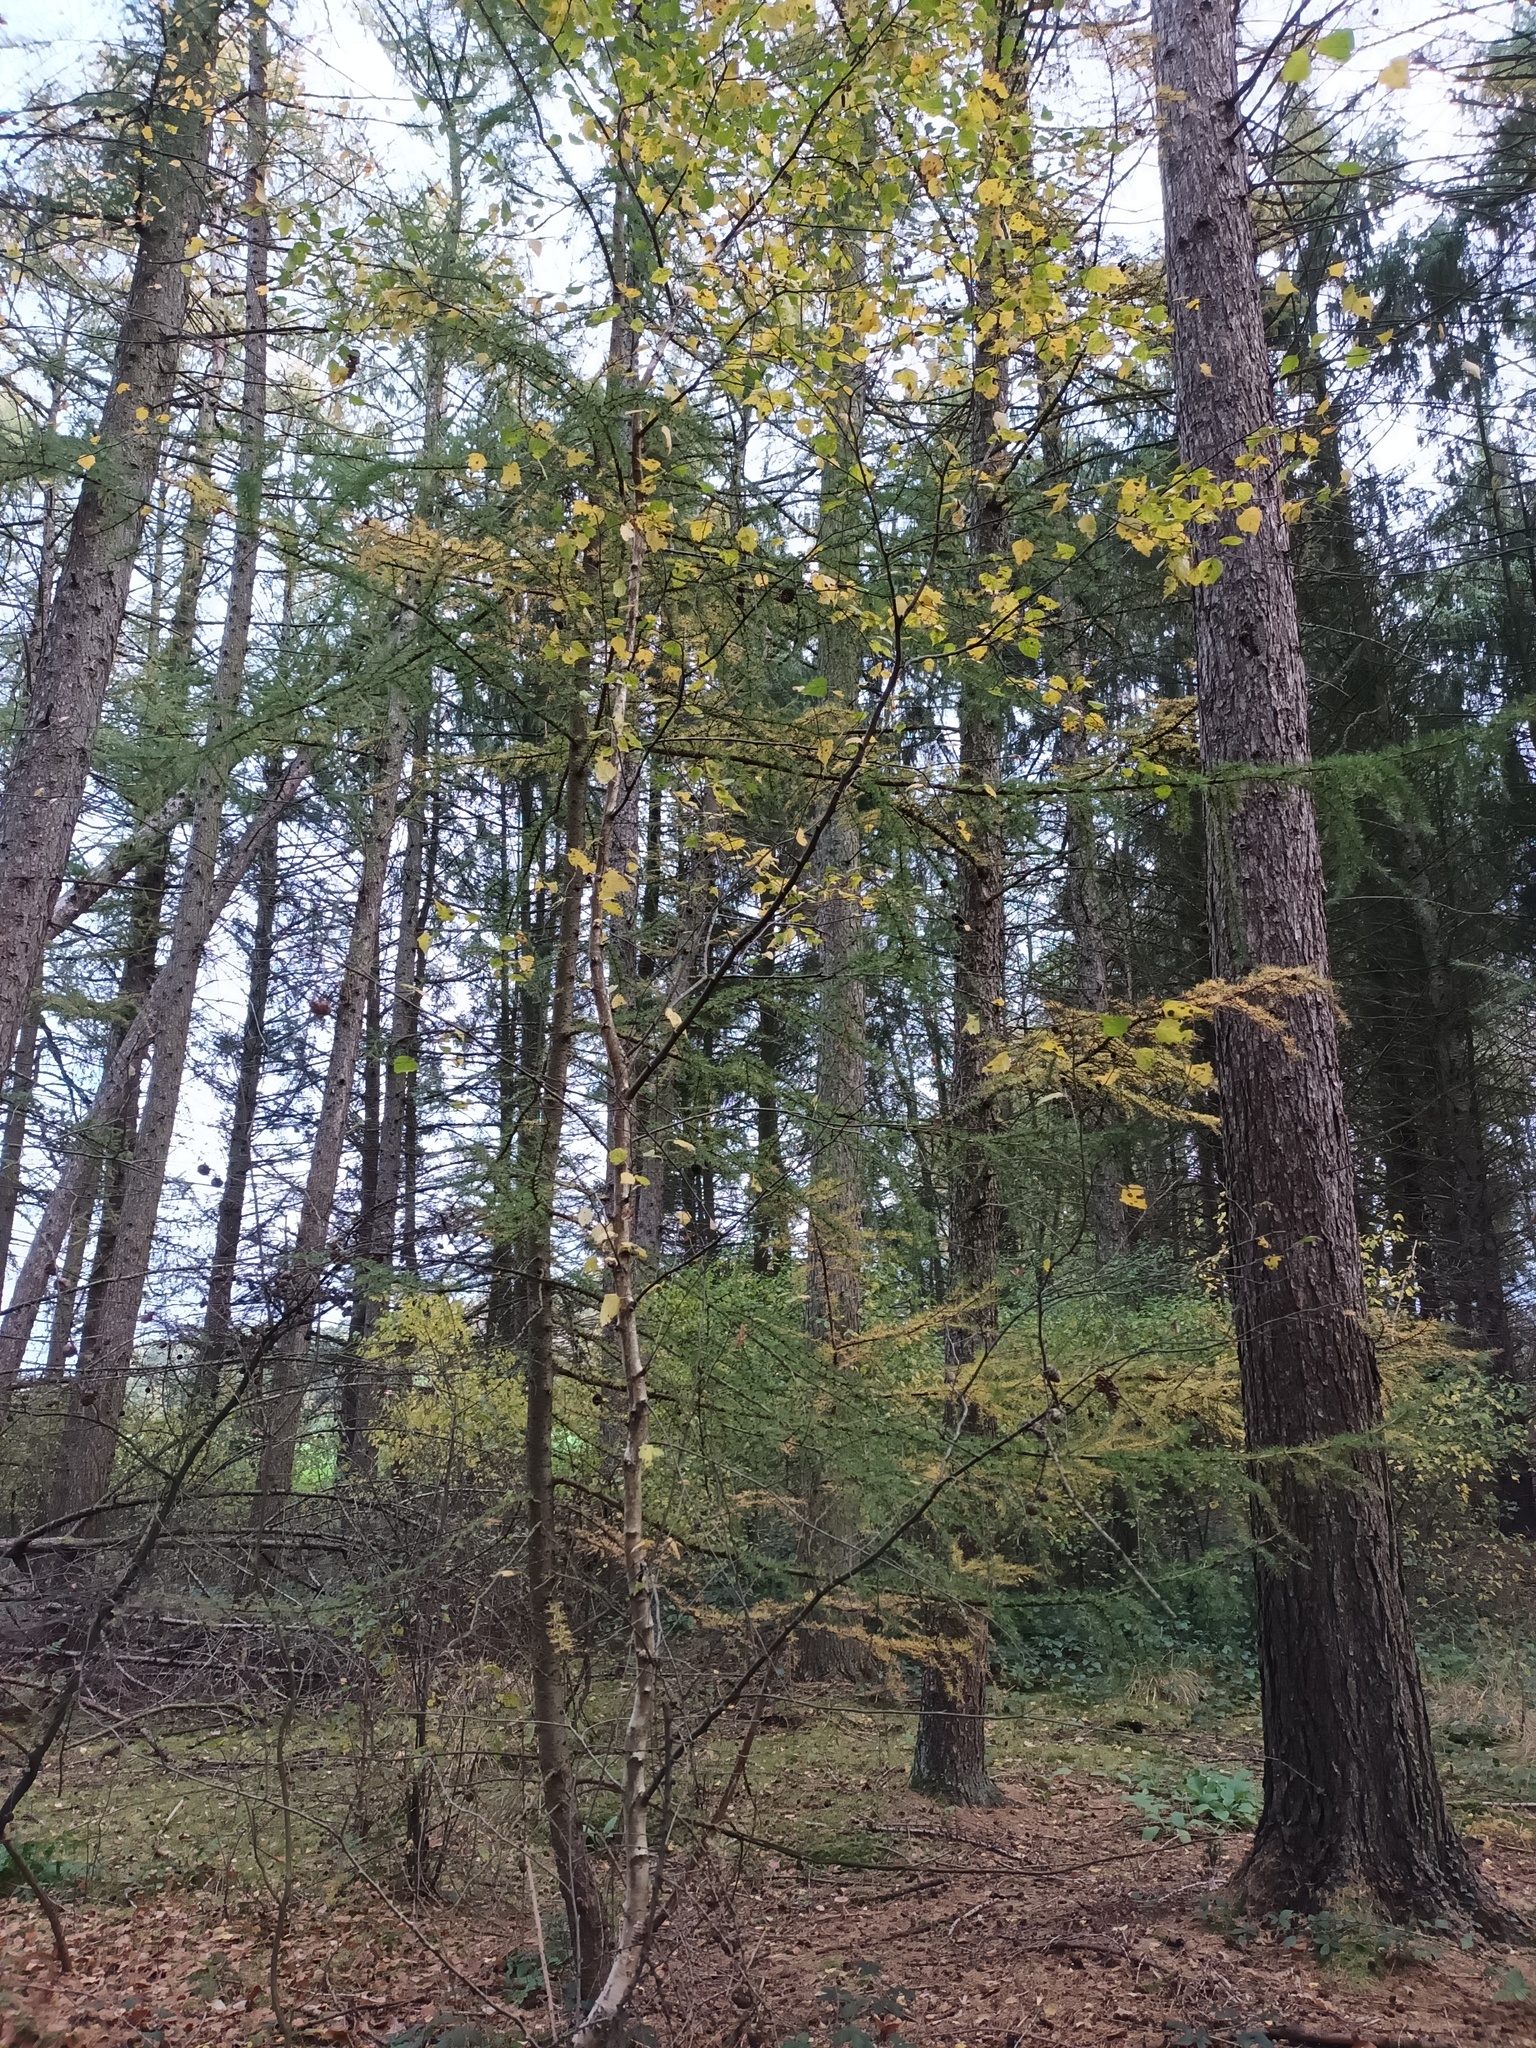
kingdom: Plantae
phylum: Tracheophyta
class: Magnoliopsida
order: Fagales
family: Betulaceae
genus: Betula
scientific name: Betula pendula
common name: Silver birch
